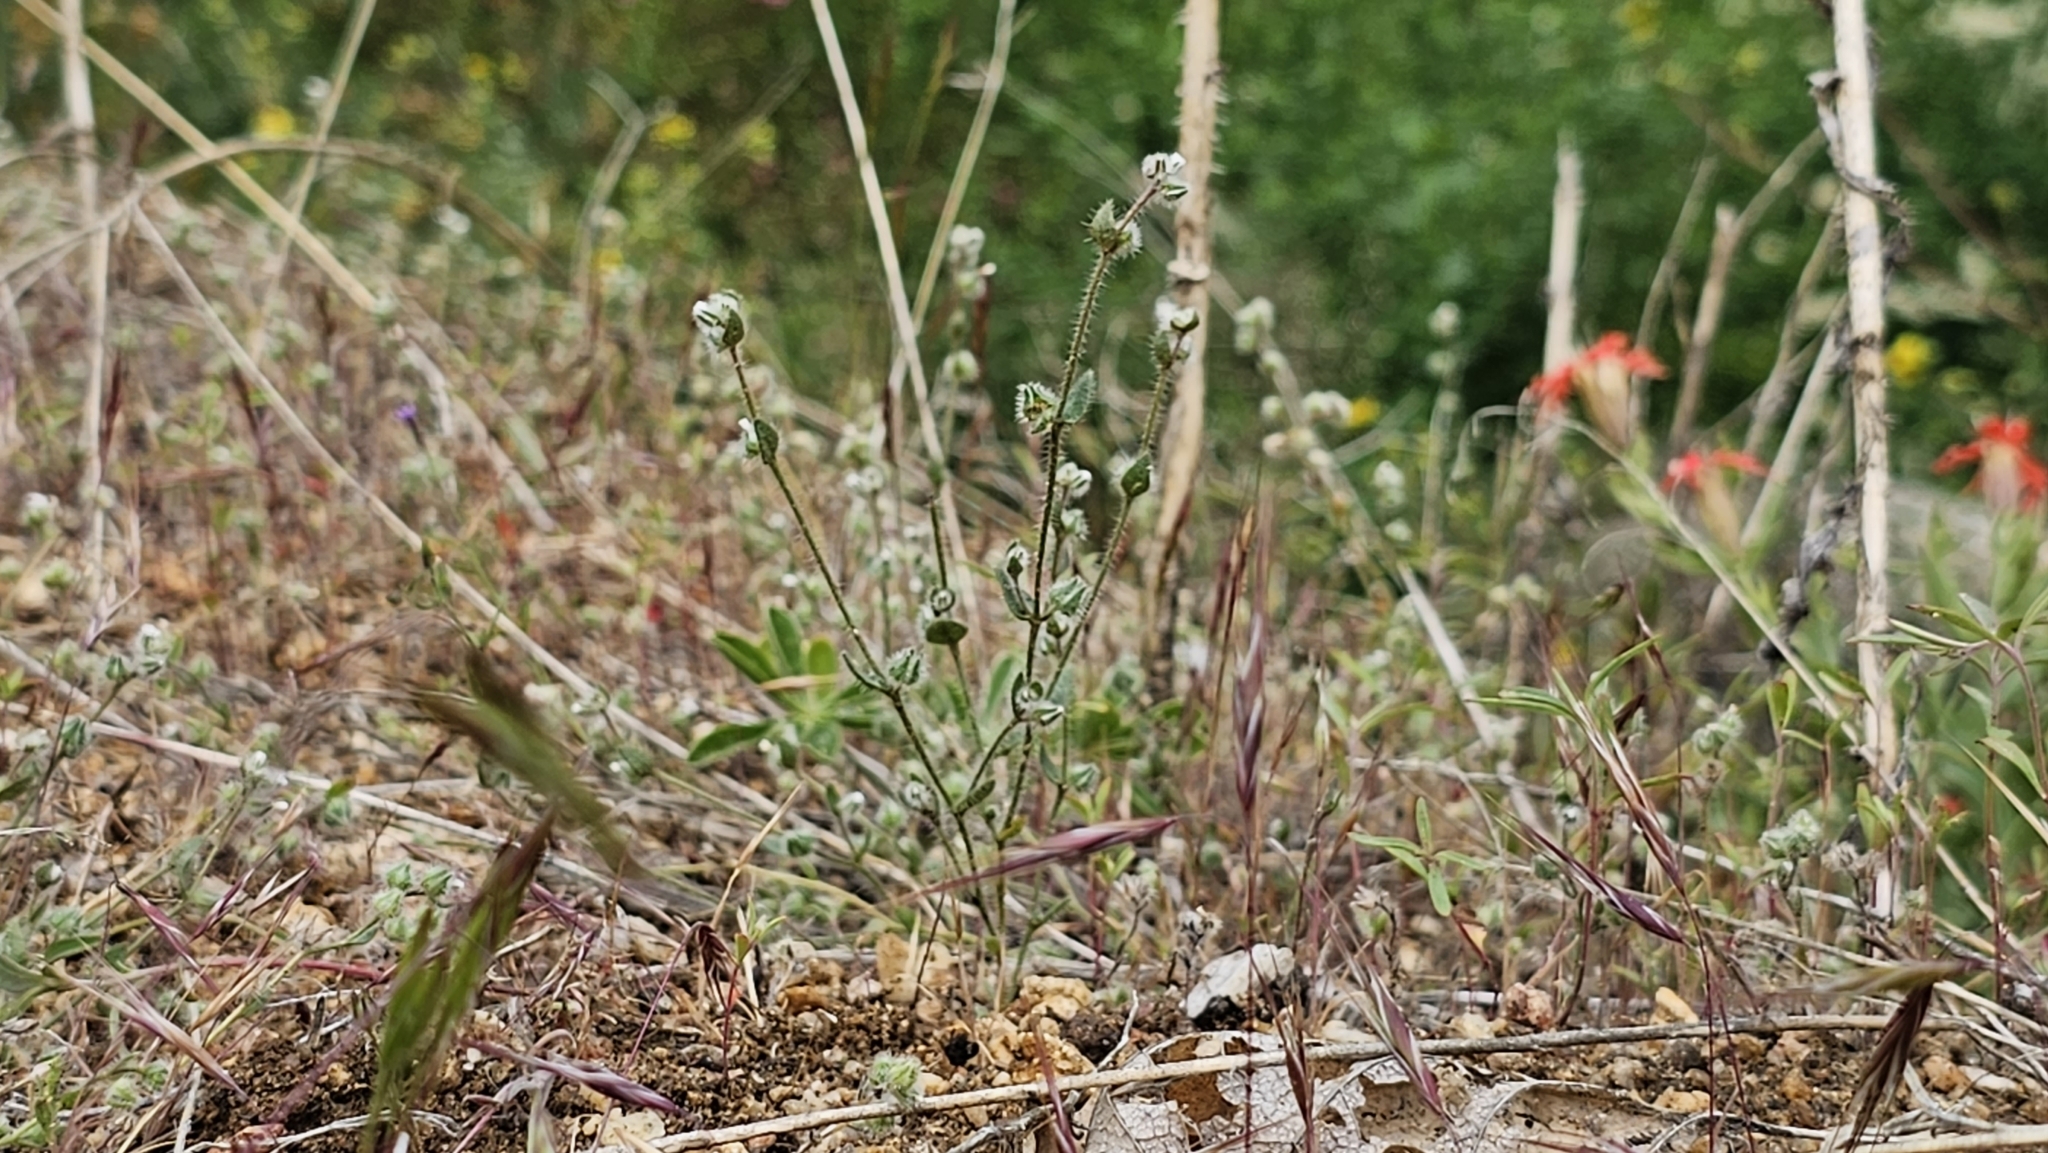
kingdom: Plantae
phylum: Tracheophyta
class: Magnoliopsida
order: Boraginales
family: Boraginaceae
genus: Plagiobothrys
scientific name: Plagiobothrys torreyi
